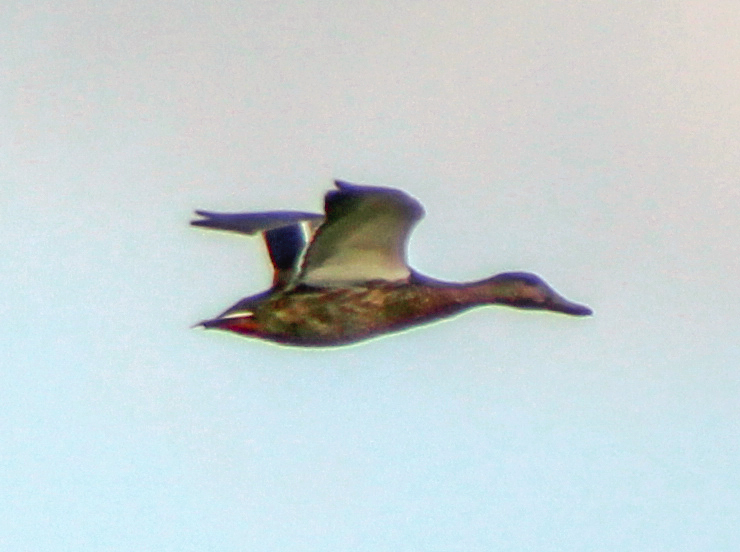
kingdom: Animalia
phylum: Chordata
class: Aves
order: Anseriformes
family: Anatidae
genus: Anas
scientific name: Anas platyrhynchos
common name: Mallard
